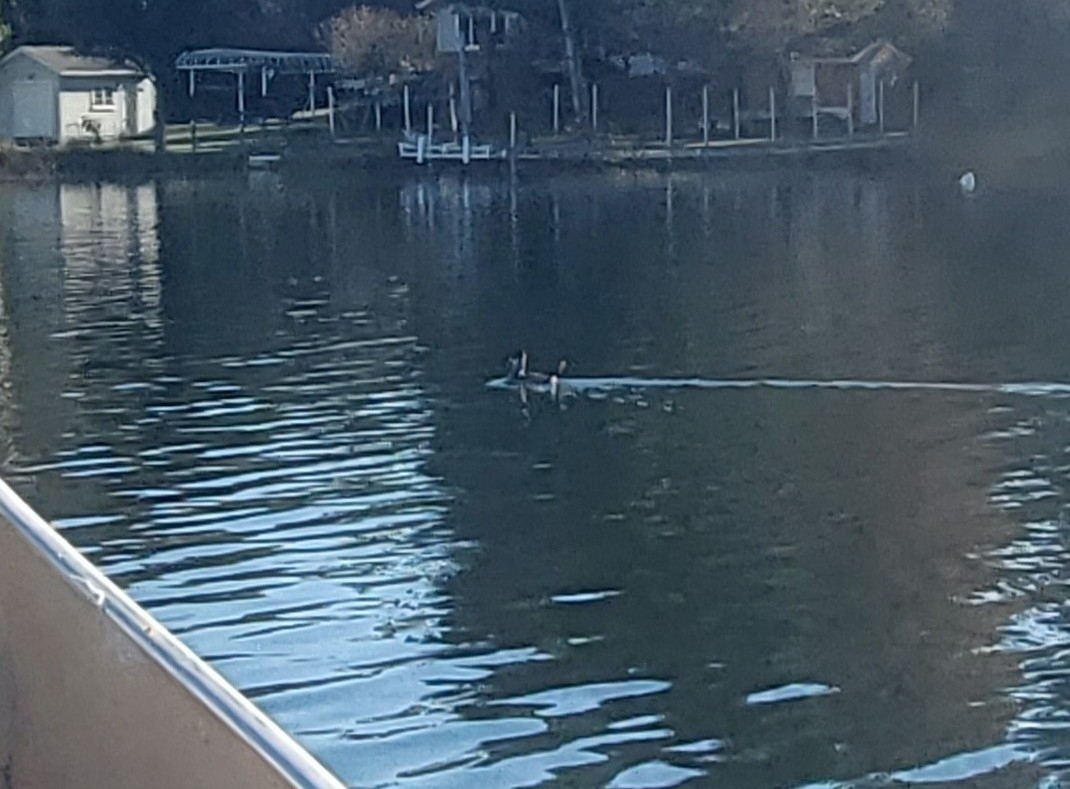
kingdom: Animalia
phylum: Chordata
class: Aves
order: Anseriformes
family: Anatidae
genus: Oxyura
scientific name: Oxyura jamaicensis
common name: Ruddy duck
